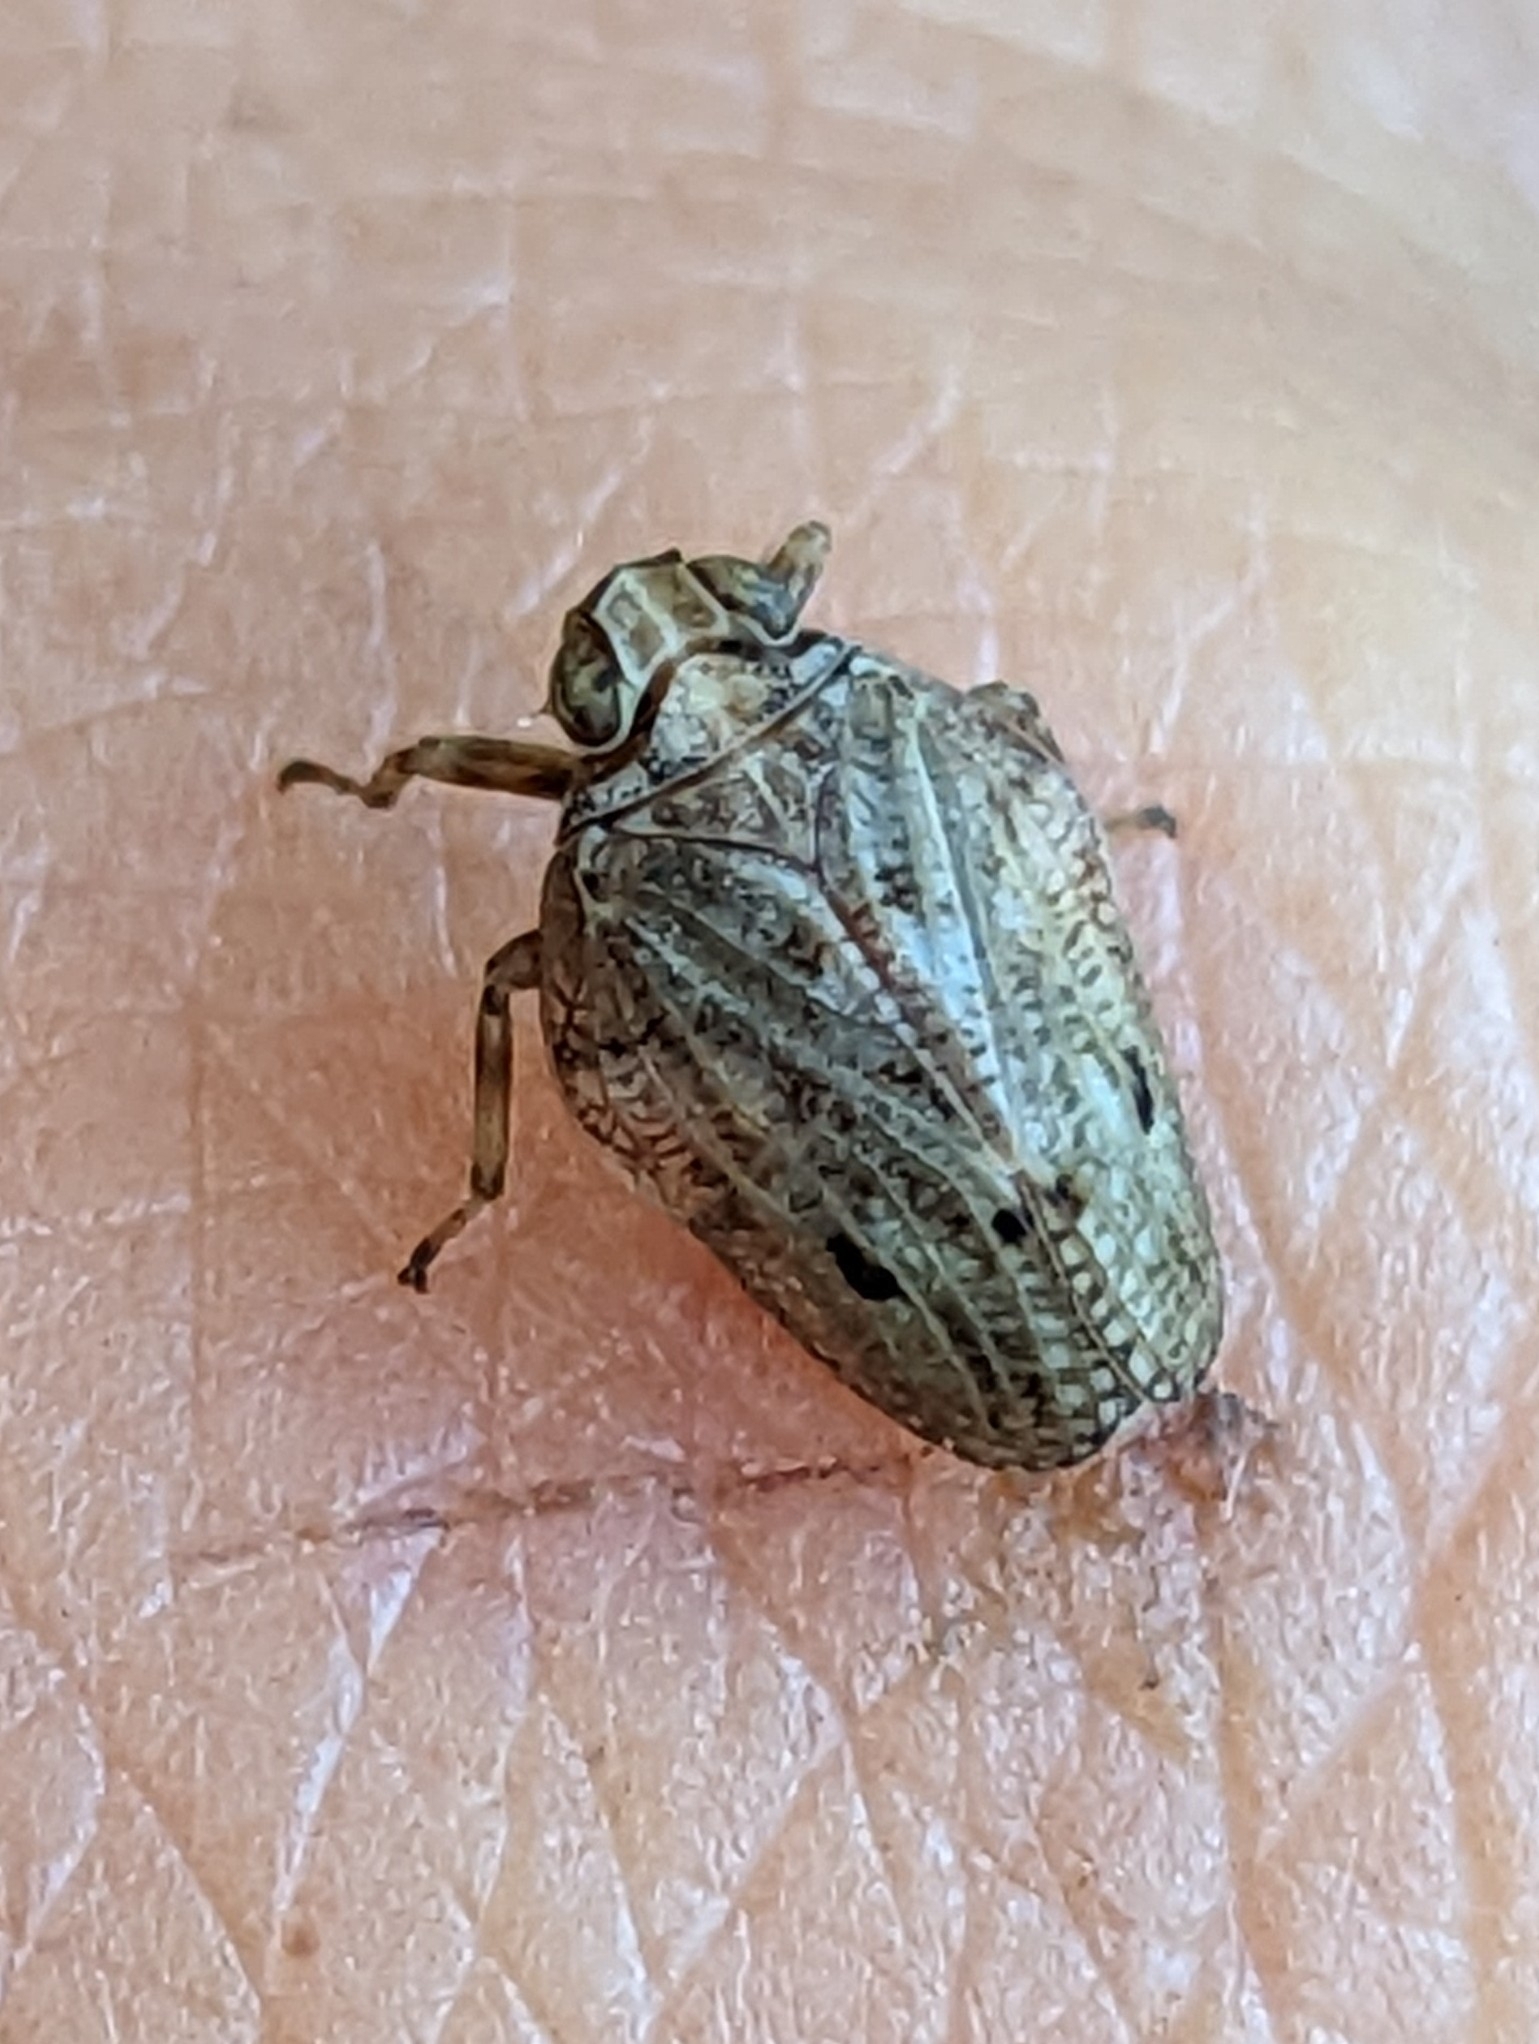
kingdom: Animalia
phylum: Arthropoda
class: Insecta
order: Hemiptera
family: Issidae
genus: Issus
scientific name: Issus coleoptratus
